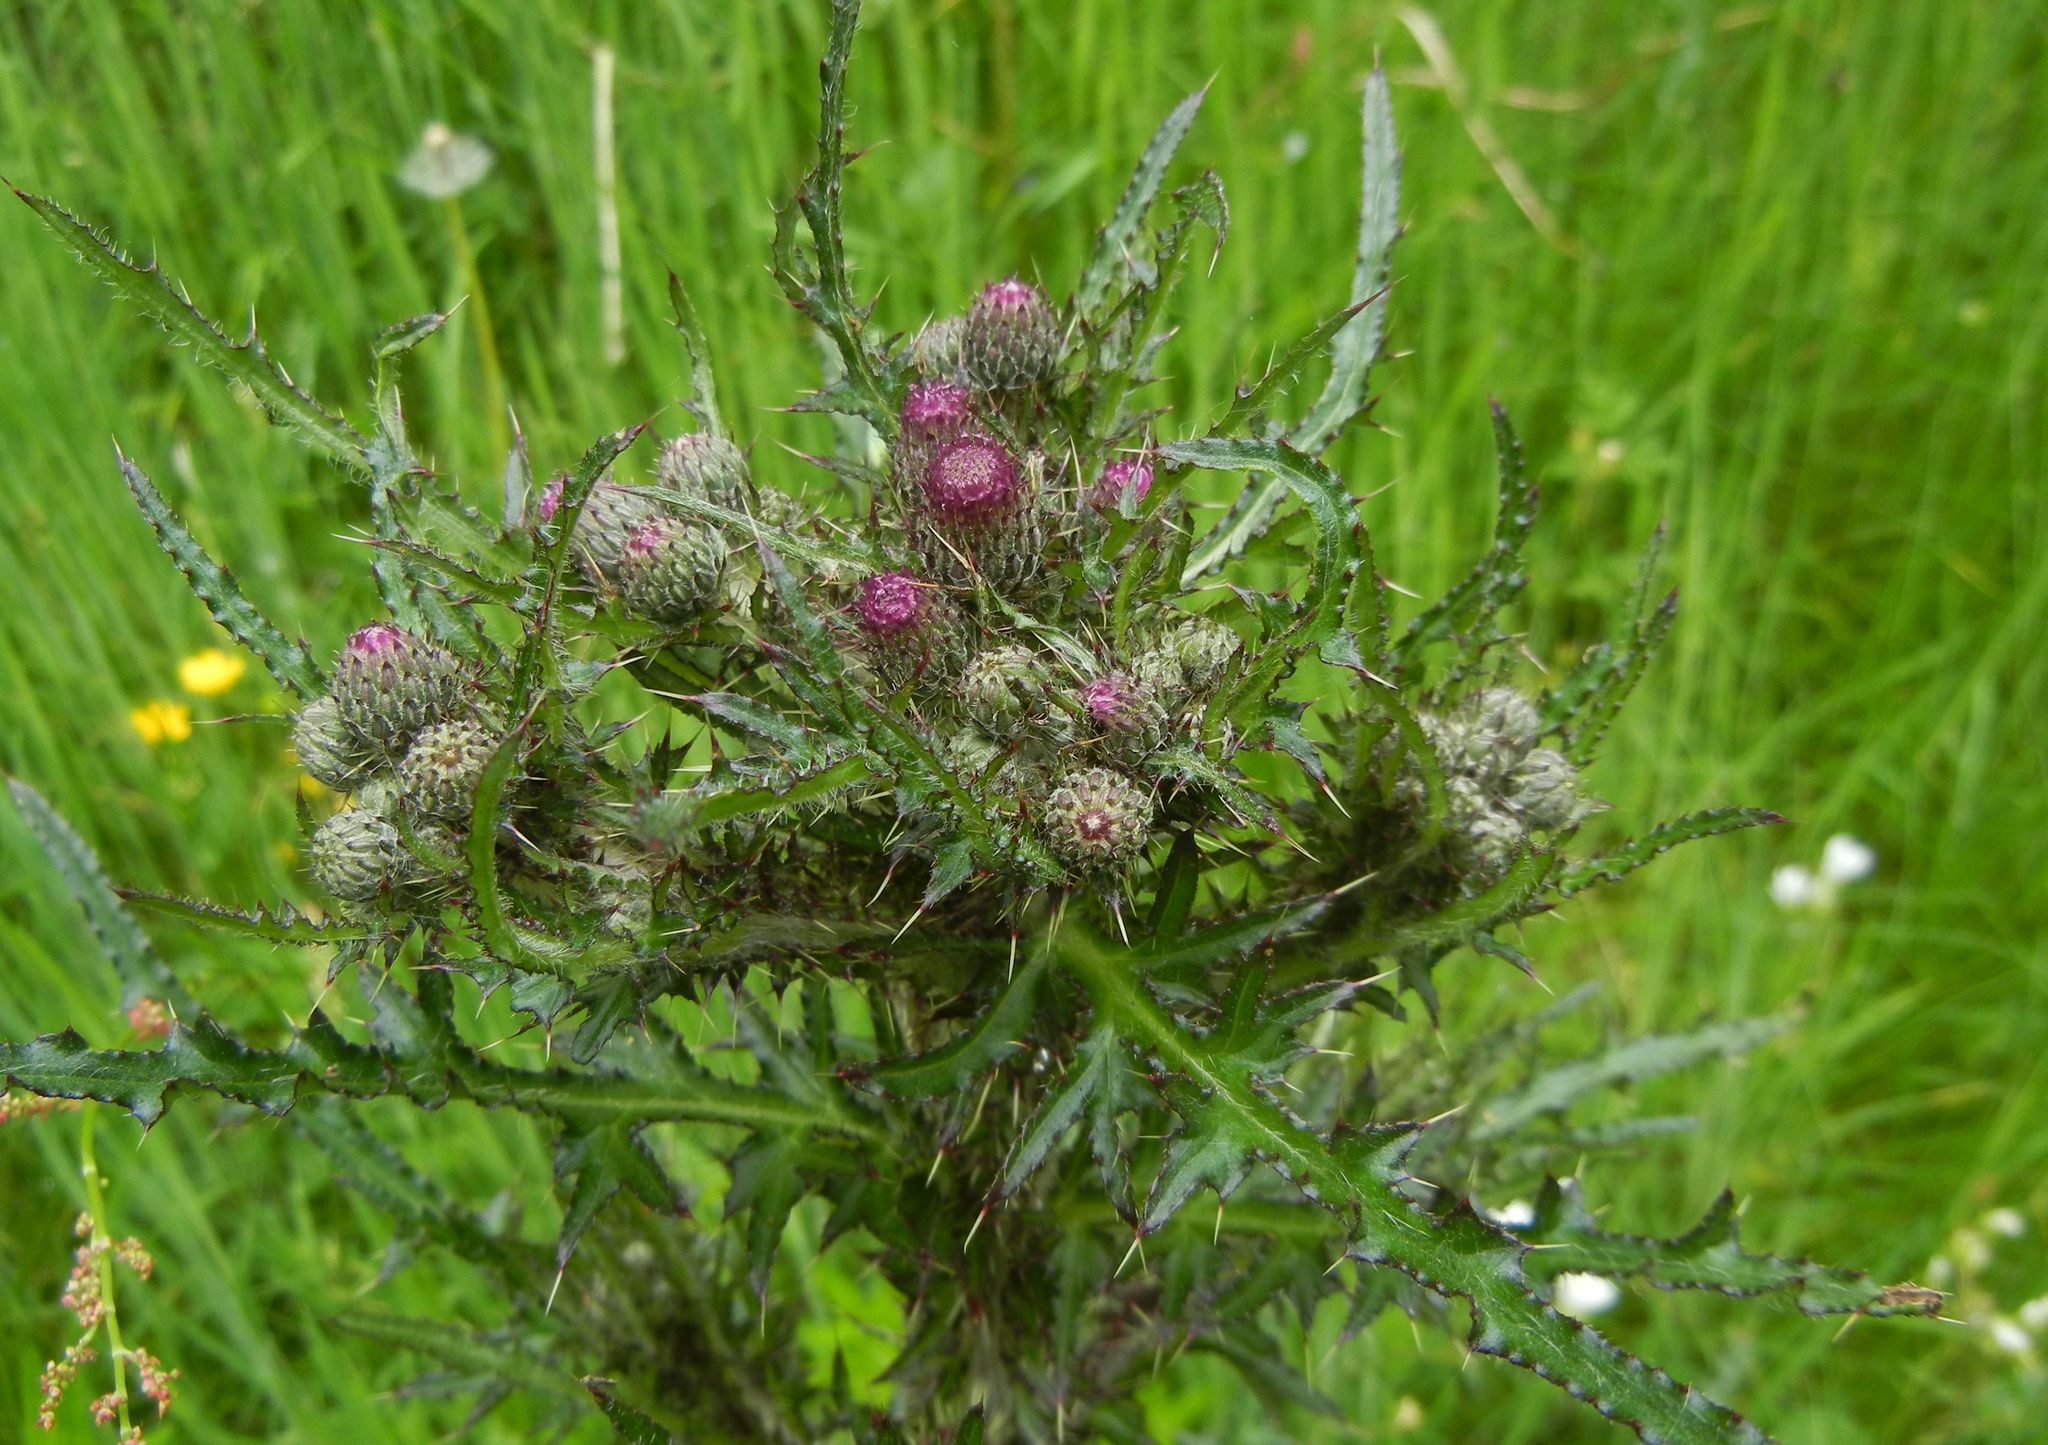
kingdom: Plantae
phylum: Tracheophyta
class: Magnoliopsida
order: Asterales
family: Asteraceae
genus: Cirsium
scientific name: Cirsium palustre
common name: Marsh thistle
